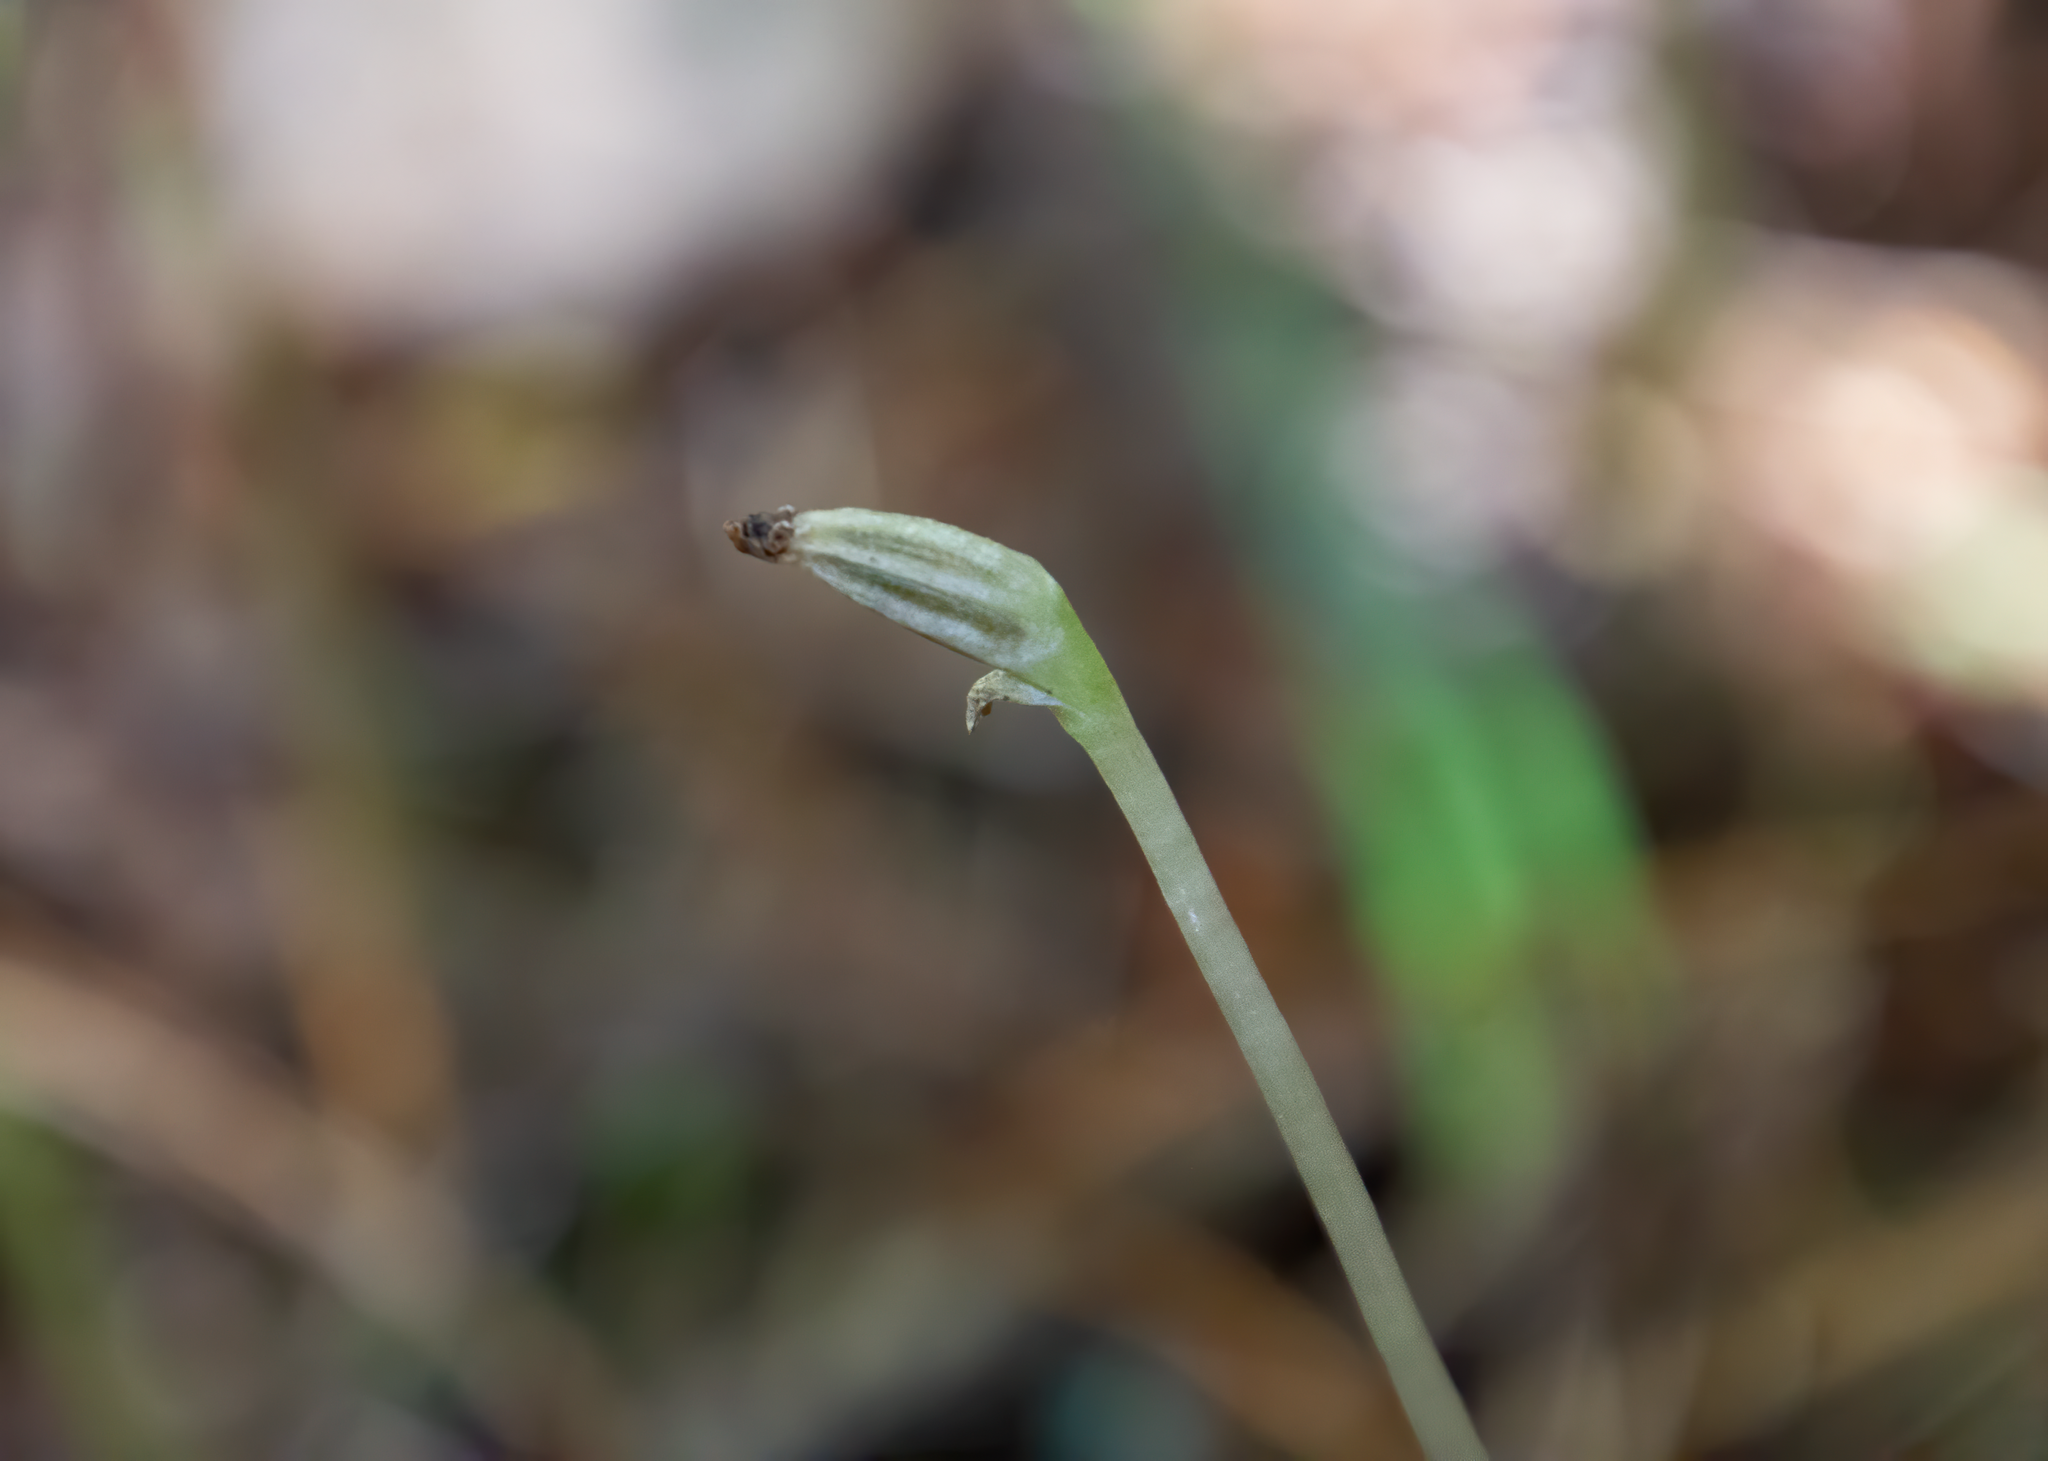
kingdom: Plantae
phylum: Tracheophyta
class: Liliopsida
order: Asparagales
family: Orchidaceae
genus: Corybas
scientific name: Corybas cheesemanii
